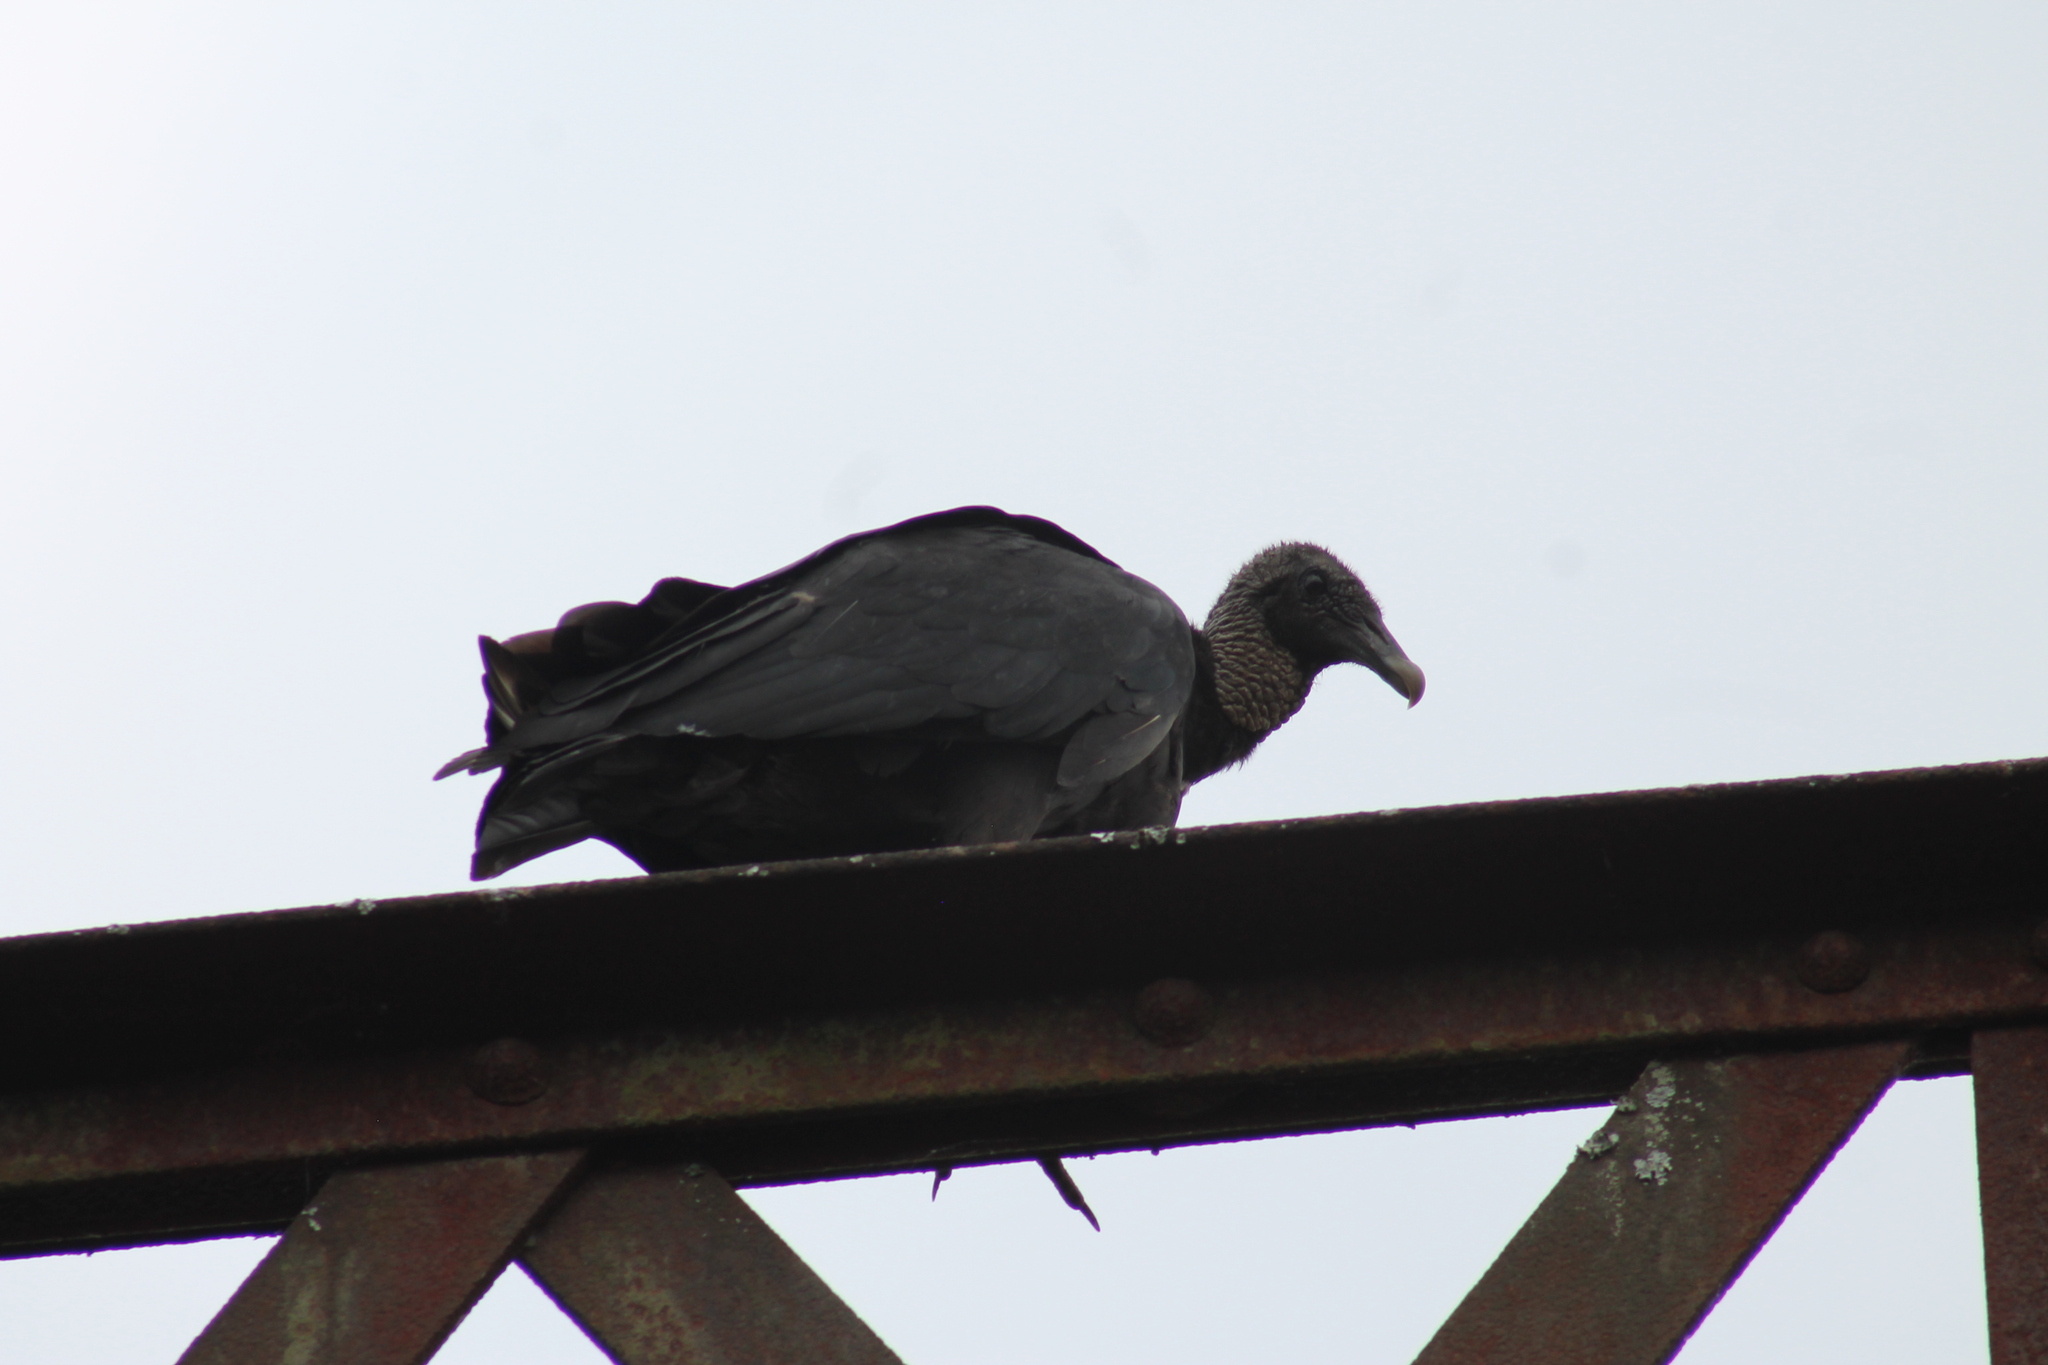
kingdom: Animalia
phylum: Chordata
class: Aves
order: Accipitriformes
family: Cathartidae
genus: Coragyps
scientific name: Coragyps atratus
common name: Black vulture
